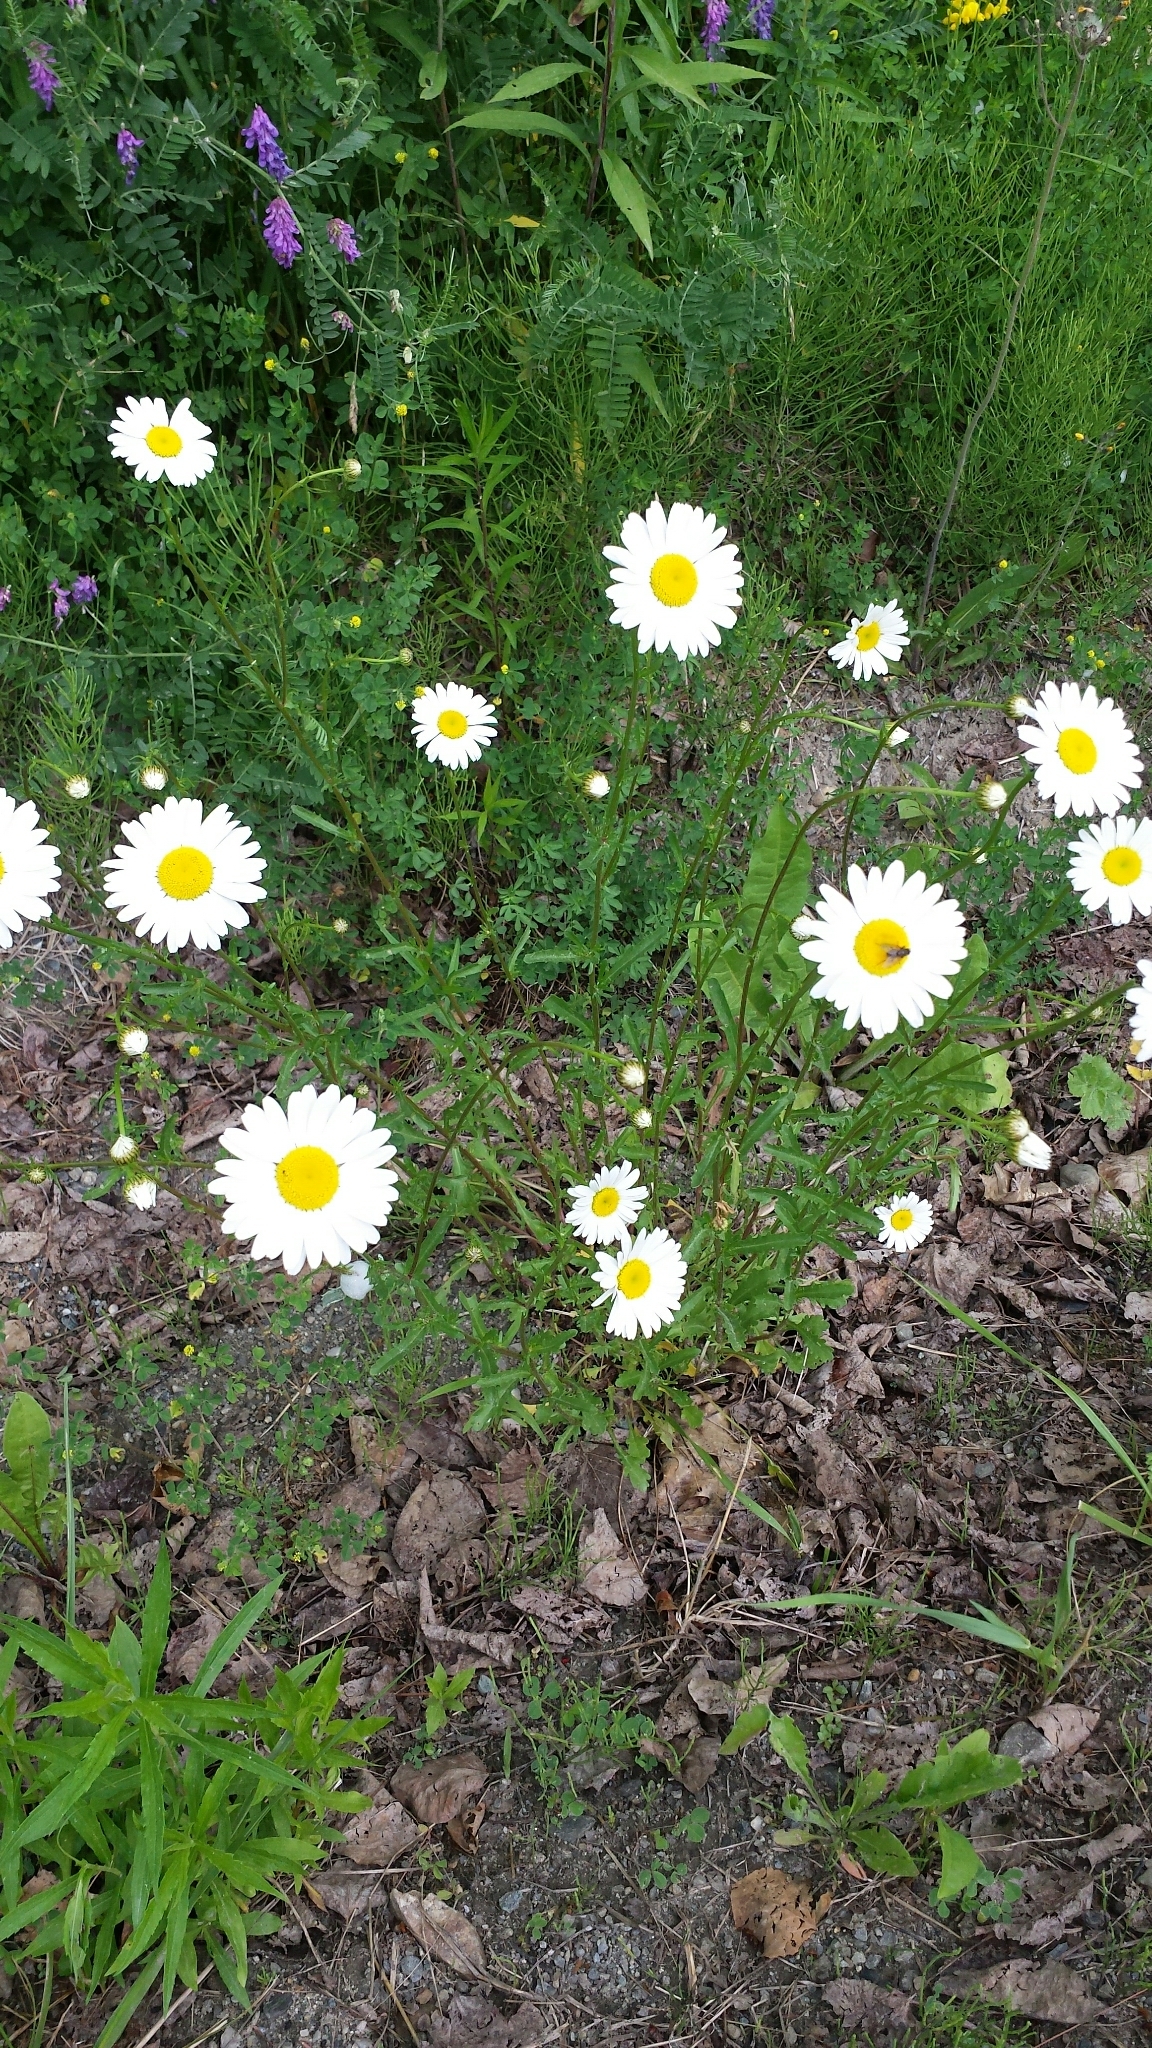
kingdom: Plantae
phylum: Tracheophyta
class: Magnoliopsida
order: Asterales
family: Asteraceae
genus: Leucanthemum
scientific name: Leucanthemum vulgare
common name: Oxeye daisy
